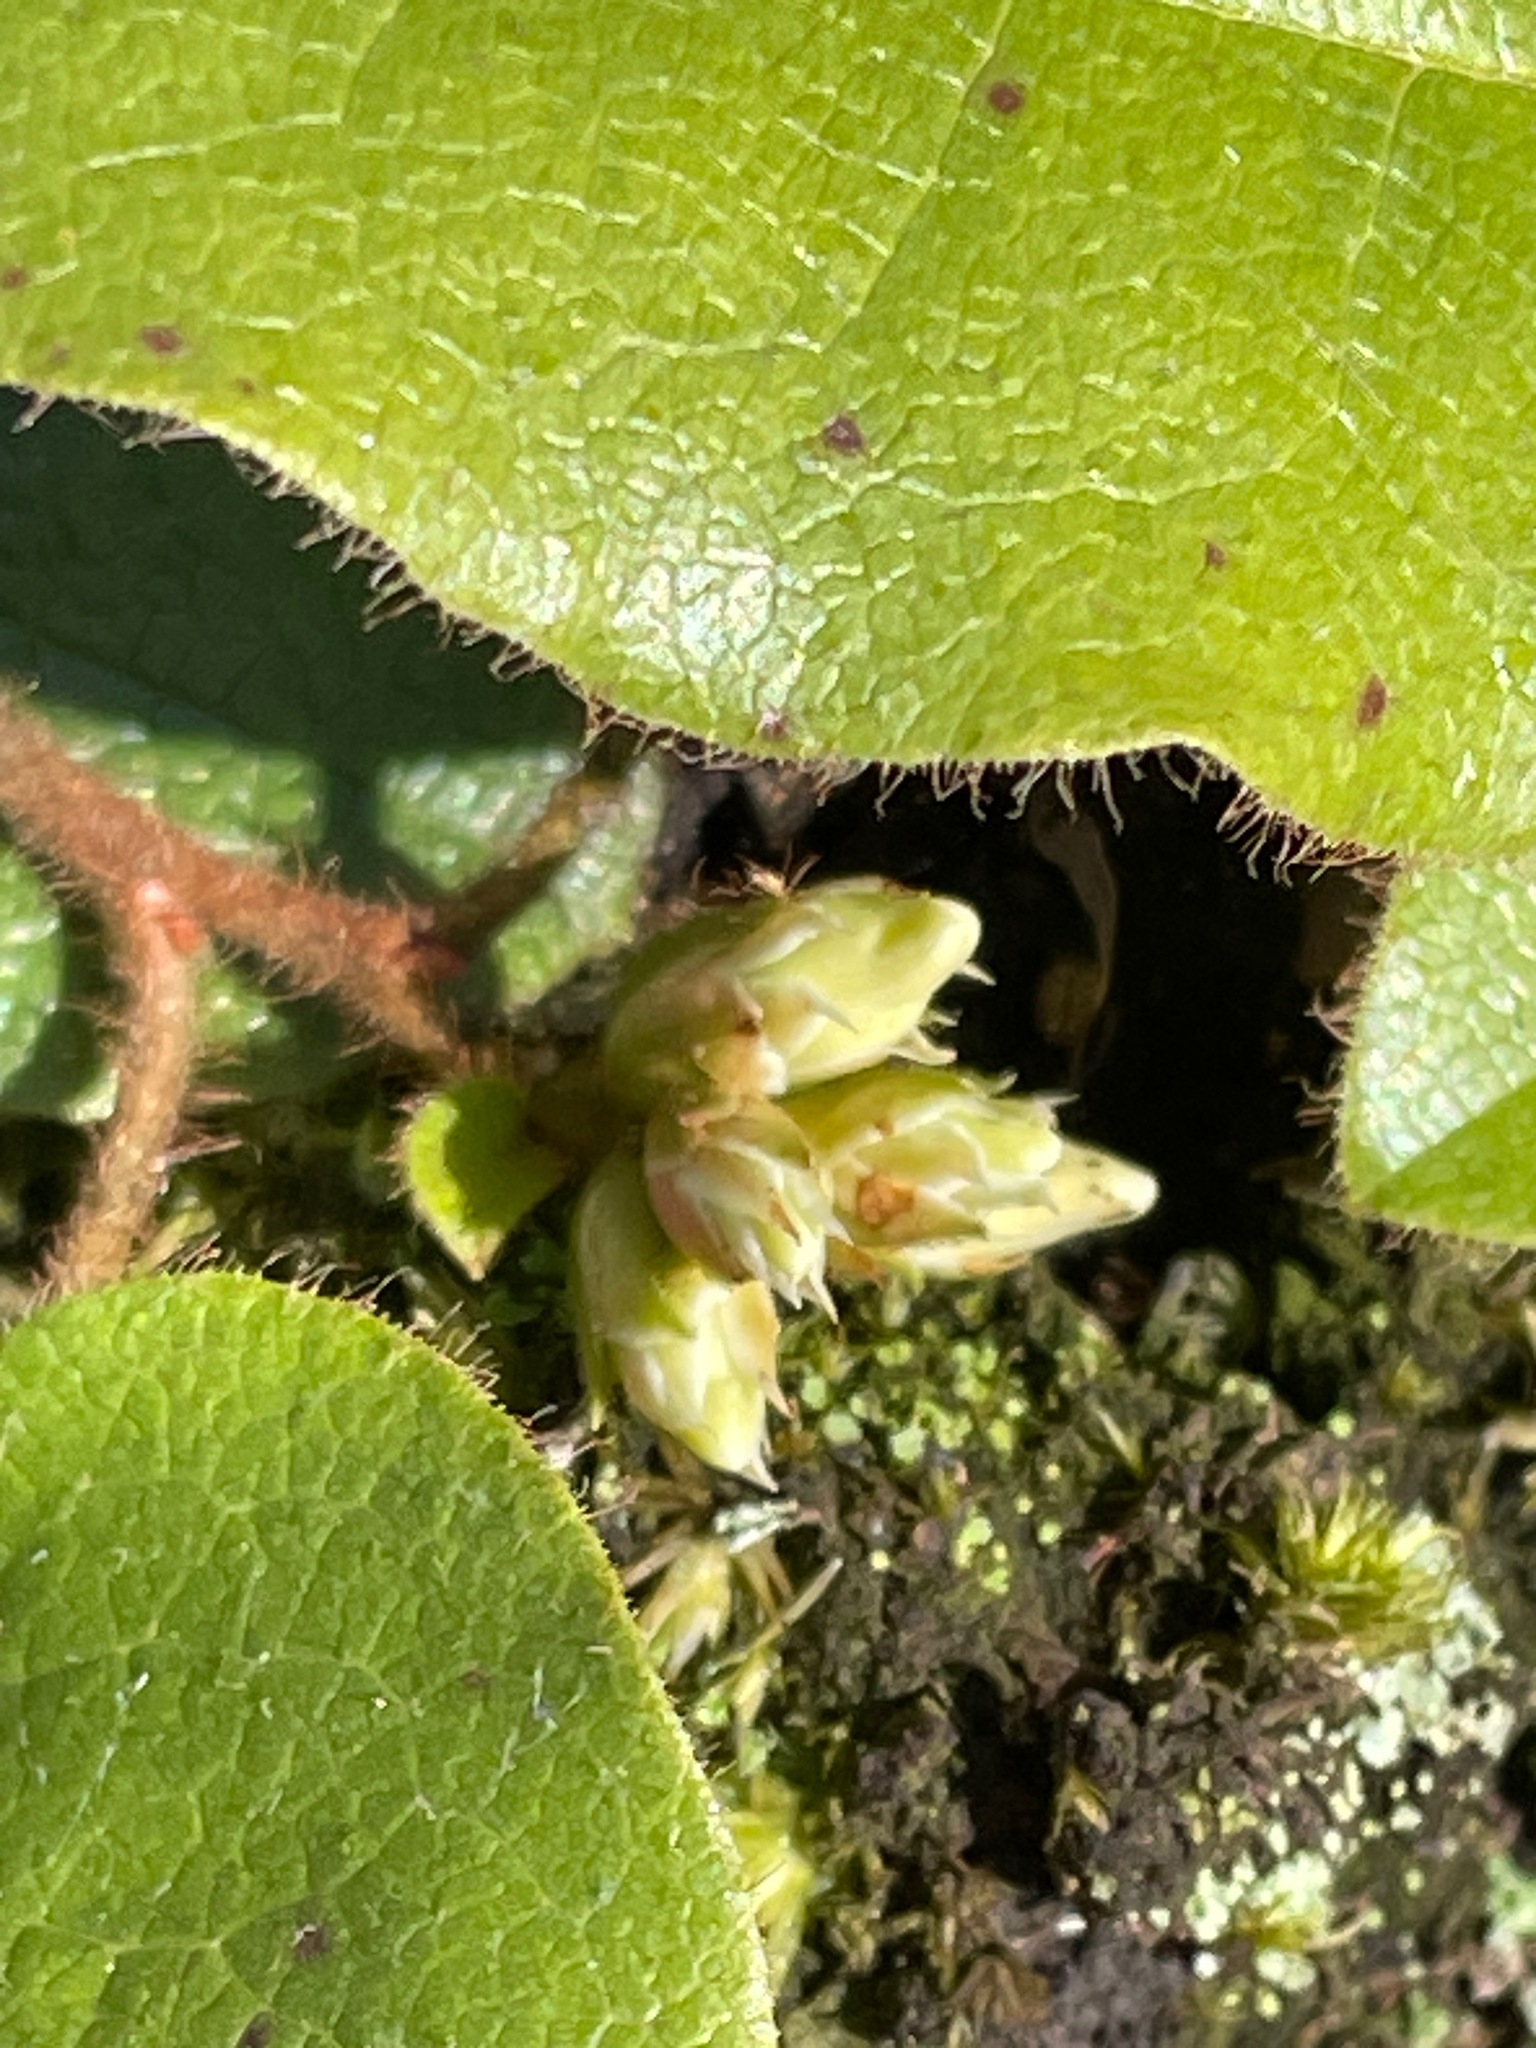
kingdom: Plantae
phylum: Tracheophyta
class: Magnoliopsida
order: Ericales
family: Ericaceae
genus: Epigaea
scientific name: Epigaea repens
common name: Gravelroot
